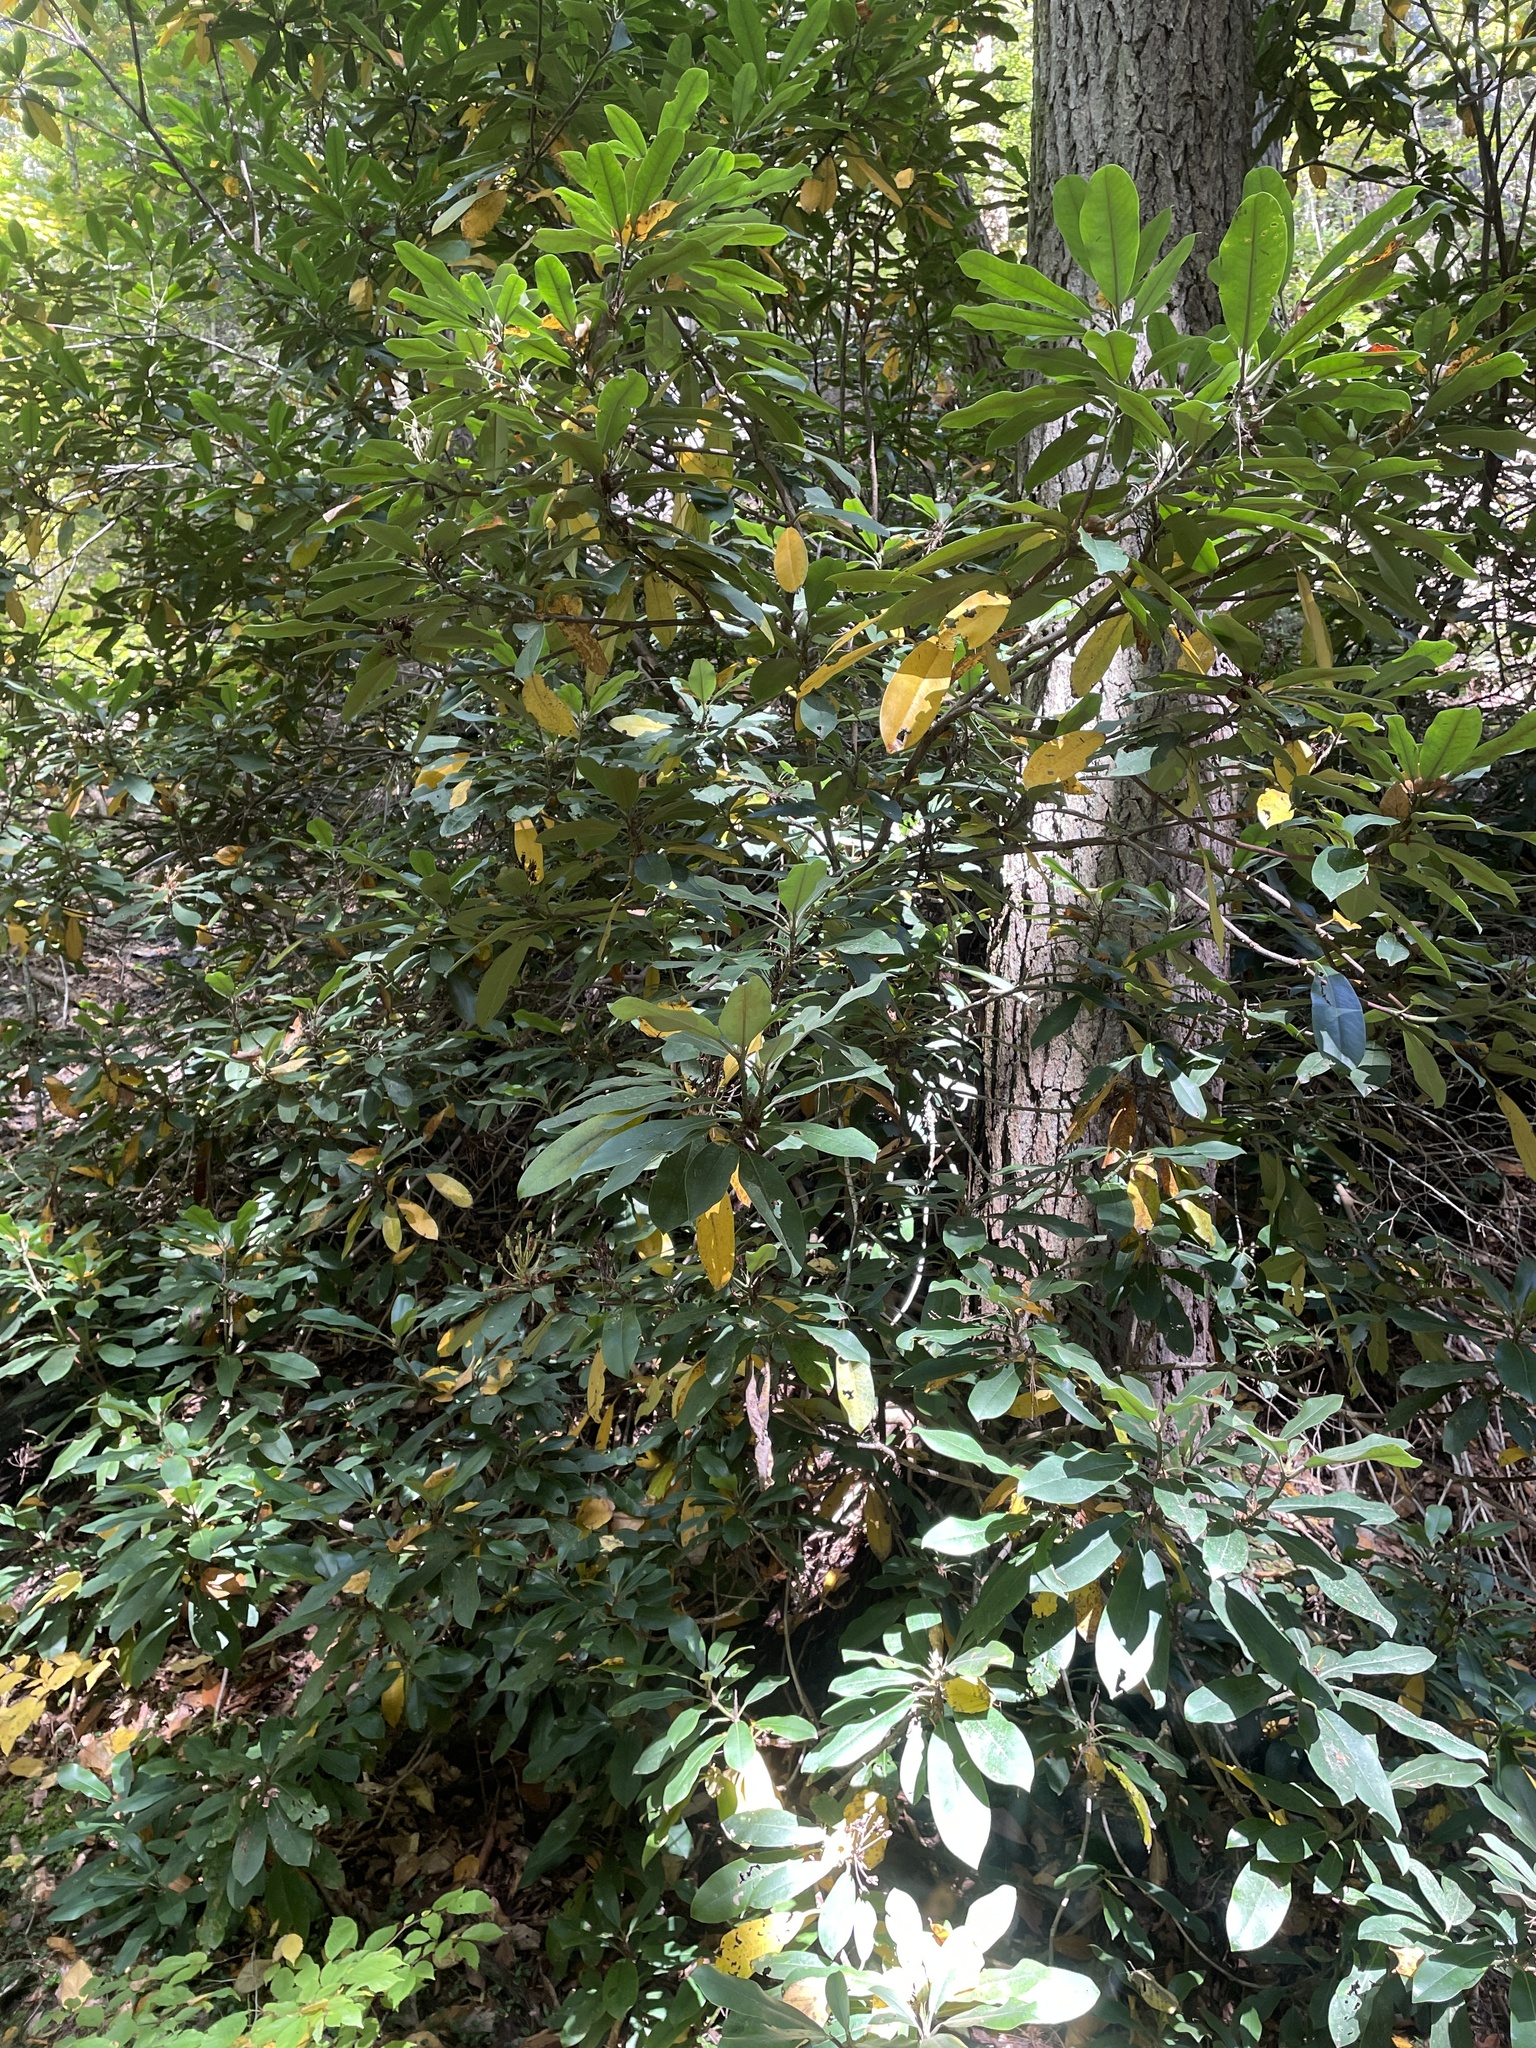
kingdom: Plantae
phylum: Tracheophyta
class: Magnoliopsida
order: Ericales
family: Ericaceae
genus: Rhododendron
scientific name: Rhododendron maximum
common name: Great rhododendron
